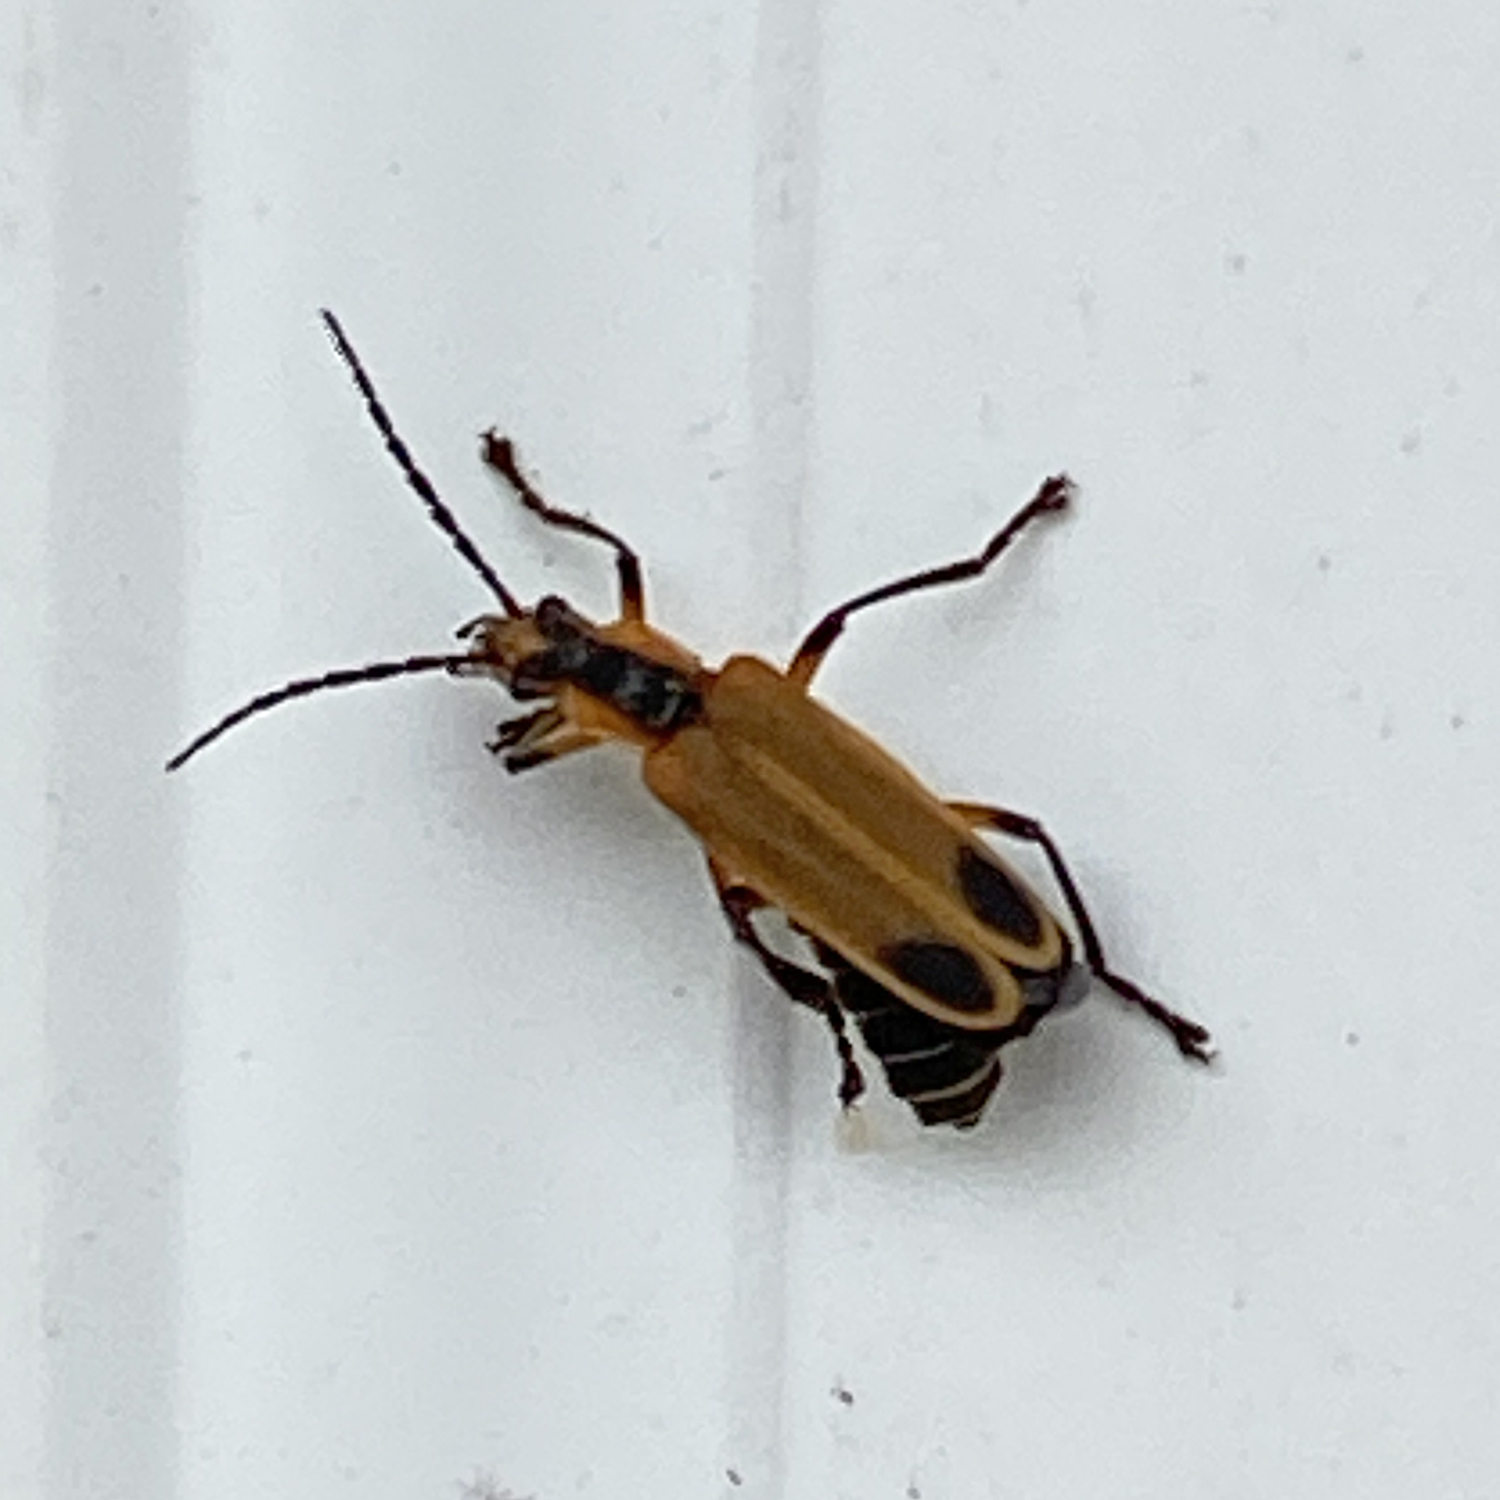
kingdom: Animalia
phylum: Arthropoda
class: Insecta
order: Coleoptera
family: Cantharidae
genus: Chauliognathus
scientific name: Chauliognathus marginatus
